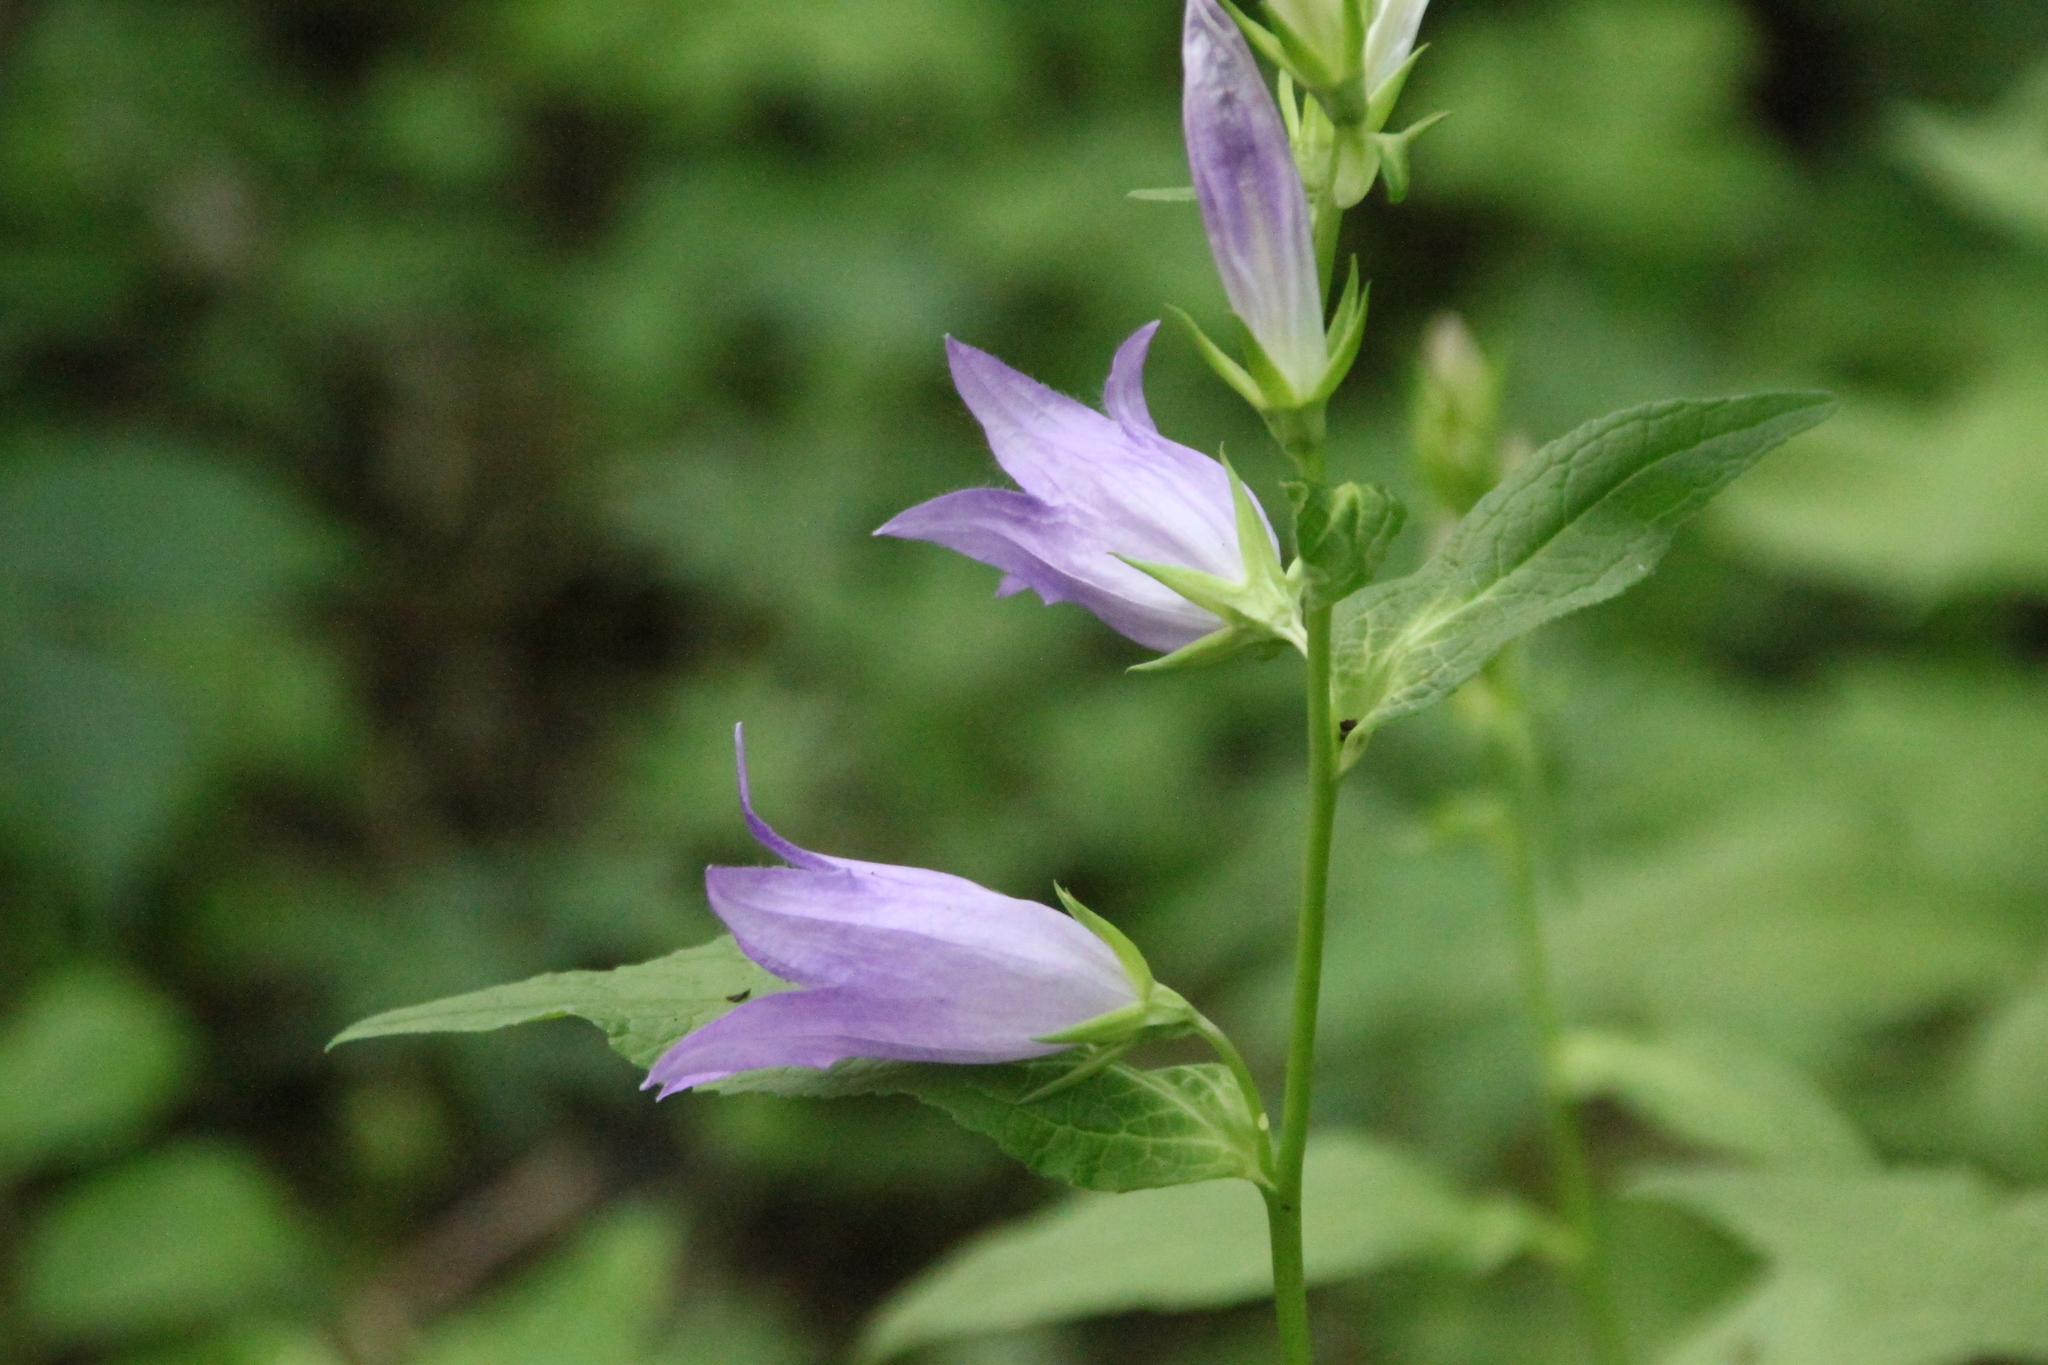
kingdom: Plantae
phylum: Tracheophyta
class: Magnoliopsida
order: Asterales
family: Campanulaceae
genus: Campanula
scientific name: Campanula latifolia
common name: Giant bellflower
